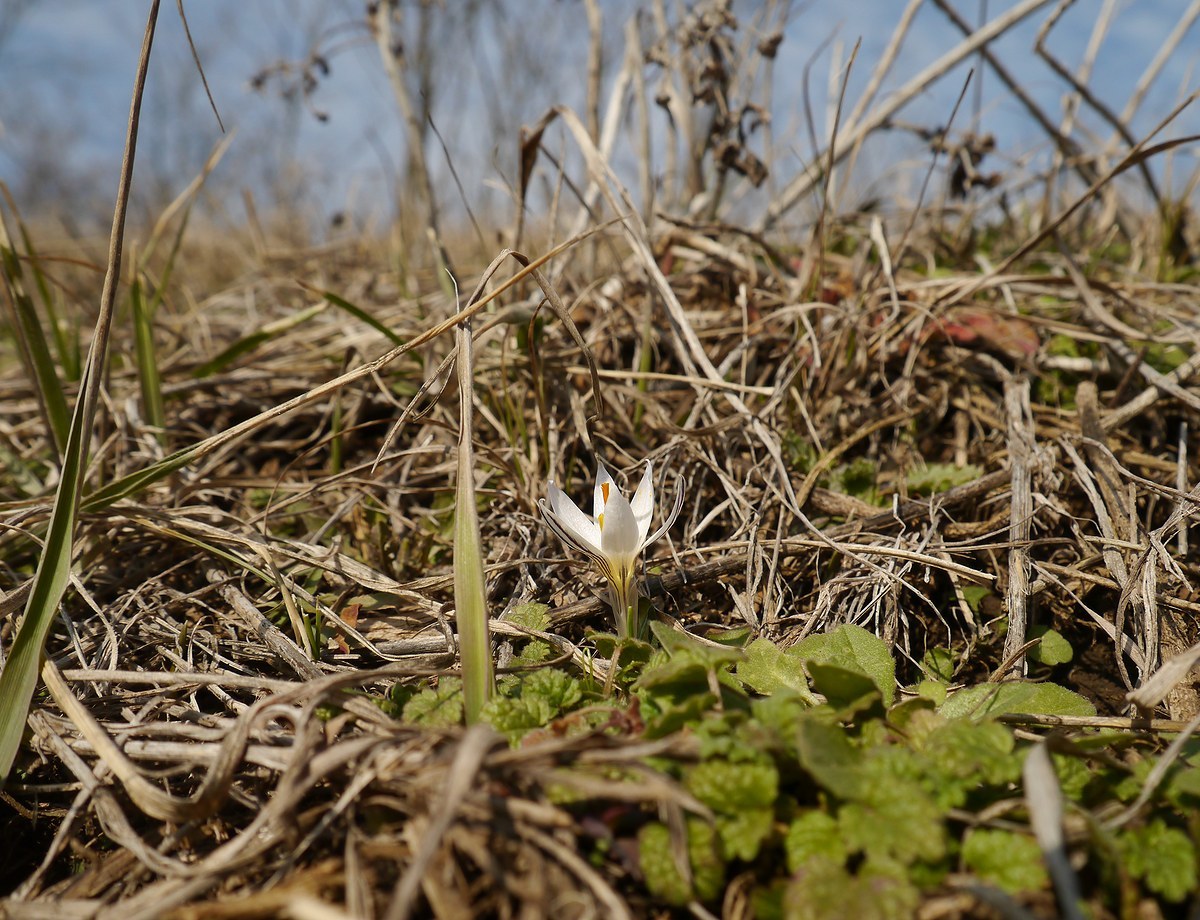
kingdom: Plantae
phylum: Tracheophyta
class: Liliopsida
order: Asparagales
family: Iridaceae
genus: Crocus
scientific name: Crocus reticulatus
